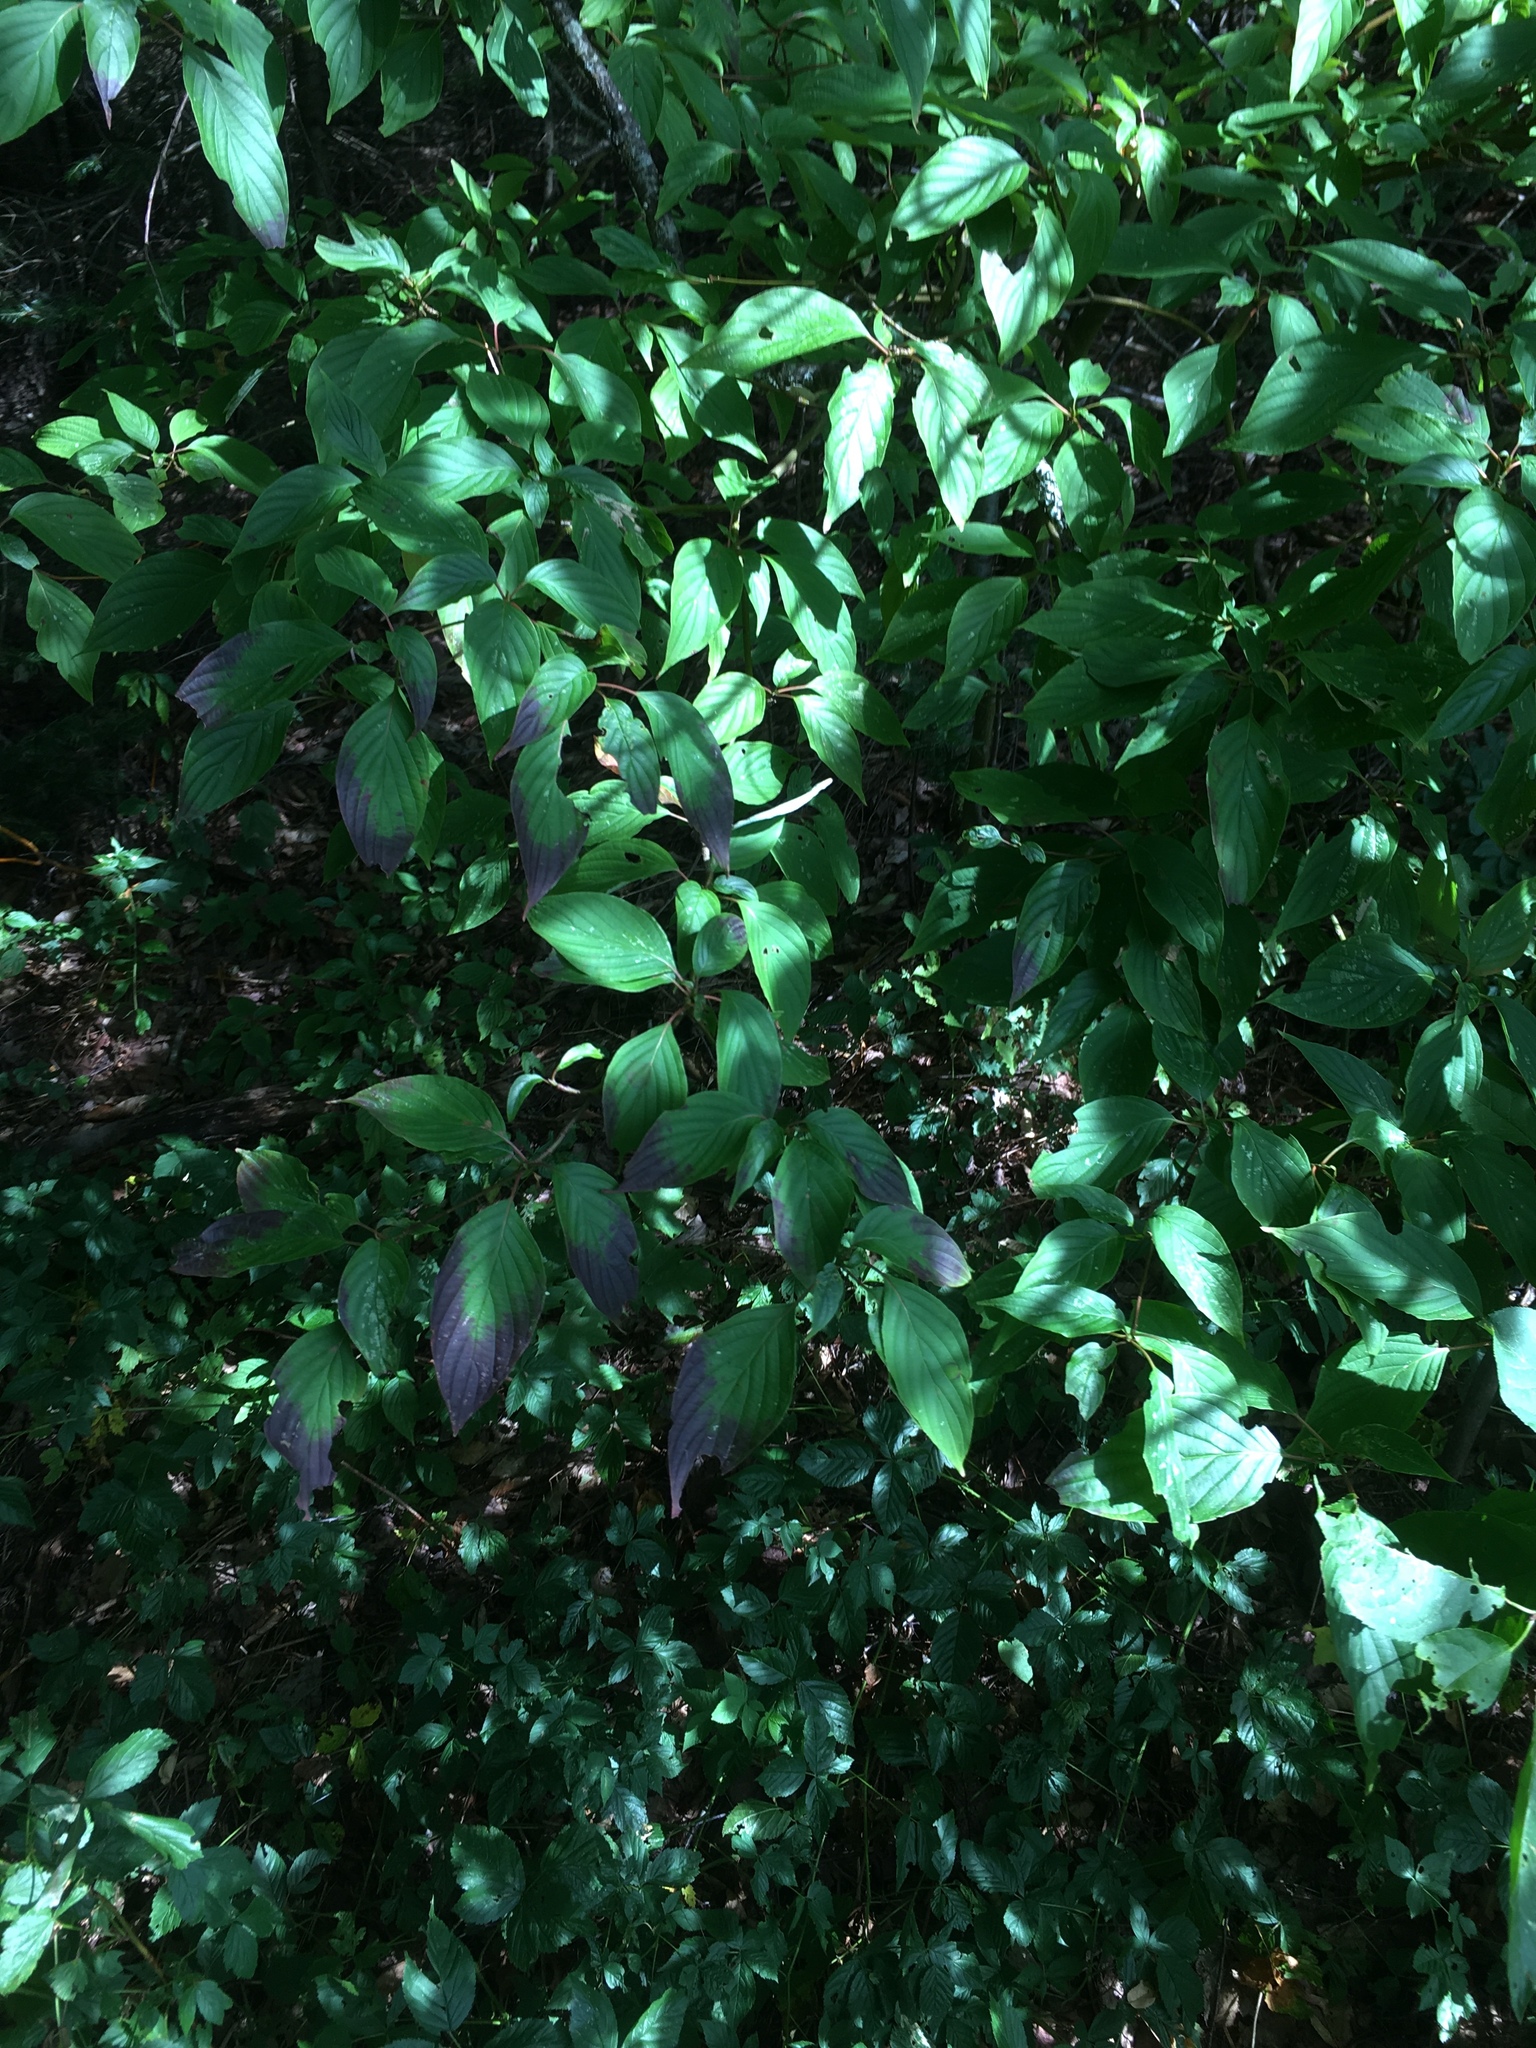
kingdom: Plantae
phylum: Tracheophyta
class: Magnoliopsida
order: Cornales
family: Cornaceae
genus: Cornus
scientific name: Cornus alternifolia
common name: Pagoda dogwood
